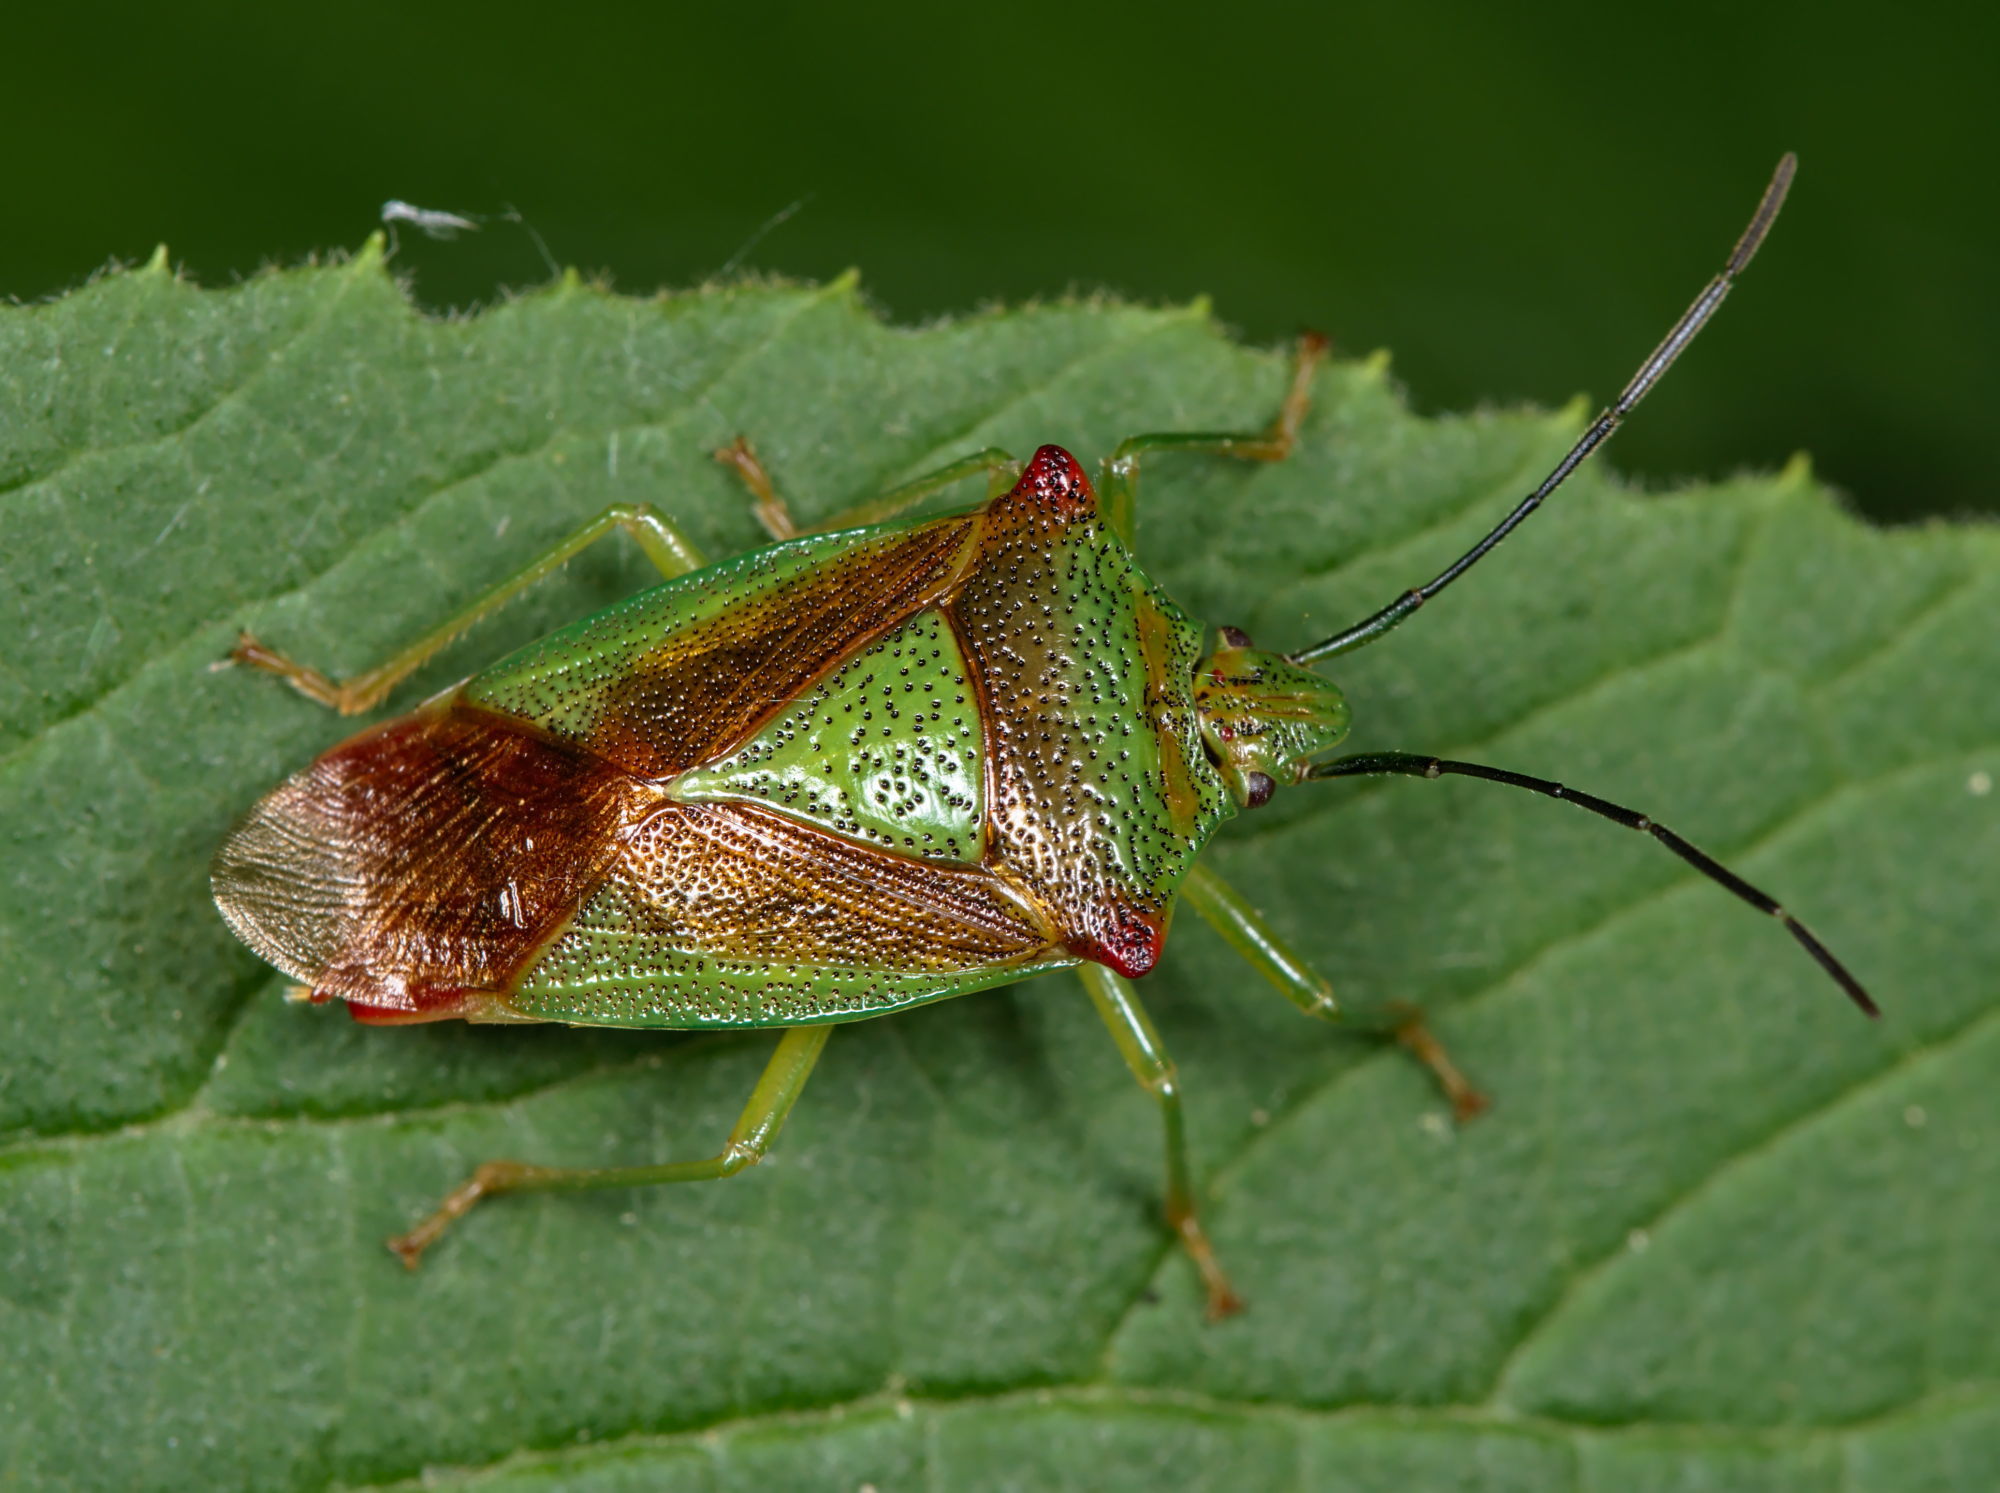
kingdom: Animalia
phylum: Arthropoda
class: Insecta
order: Hemiptera
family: Acanthosomatidae
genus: Acanthosoma
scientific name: Acanthosoma haemorrhoidale
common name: Hawthorn shieldbug
